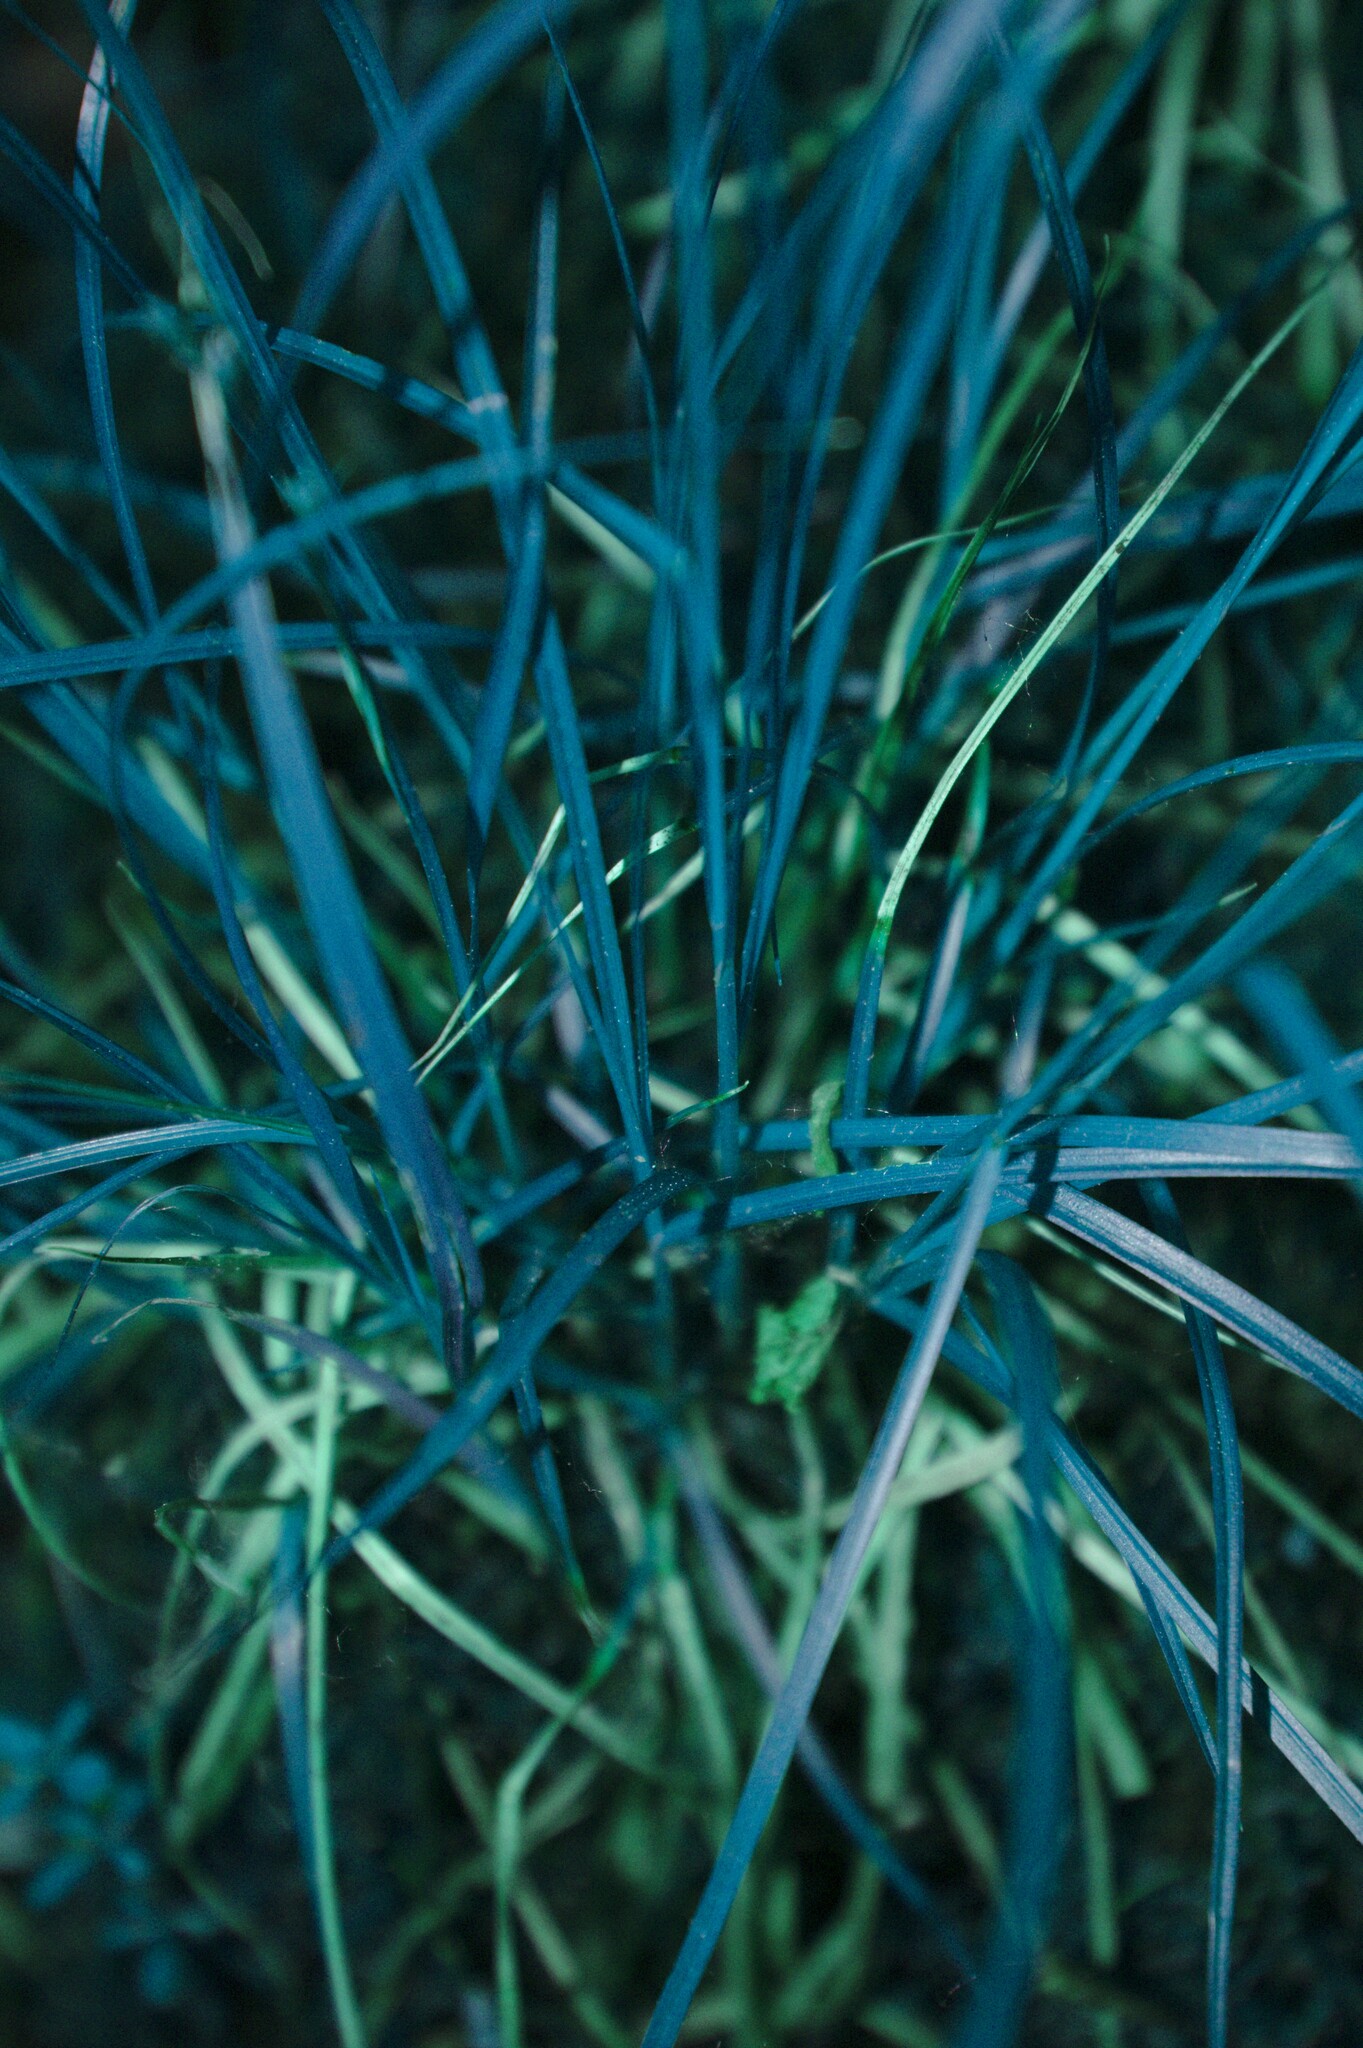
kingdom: Plantae
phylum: Tracheophyta
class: Liliopsida
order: Poales
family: Cyperaceae
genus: Carex
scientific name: Carex brunnescens
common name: Brown sedge
